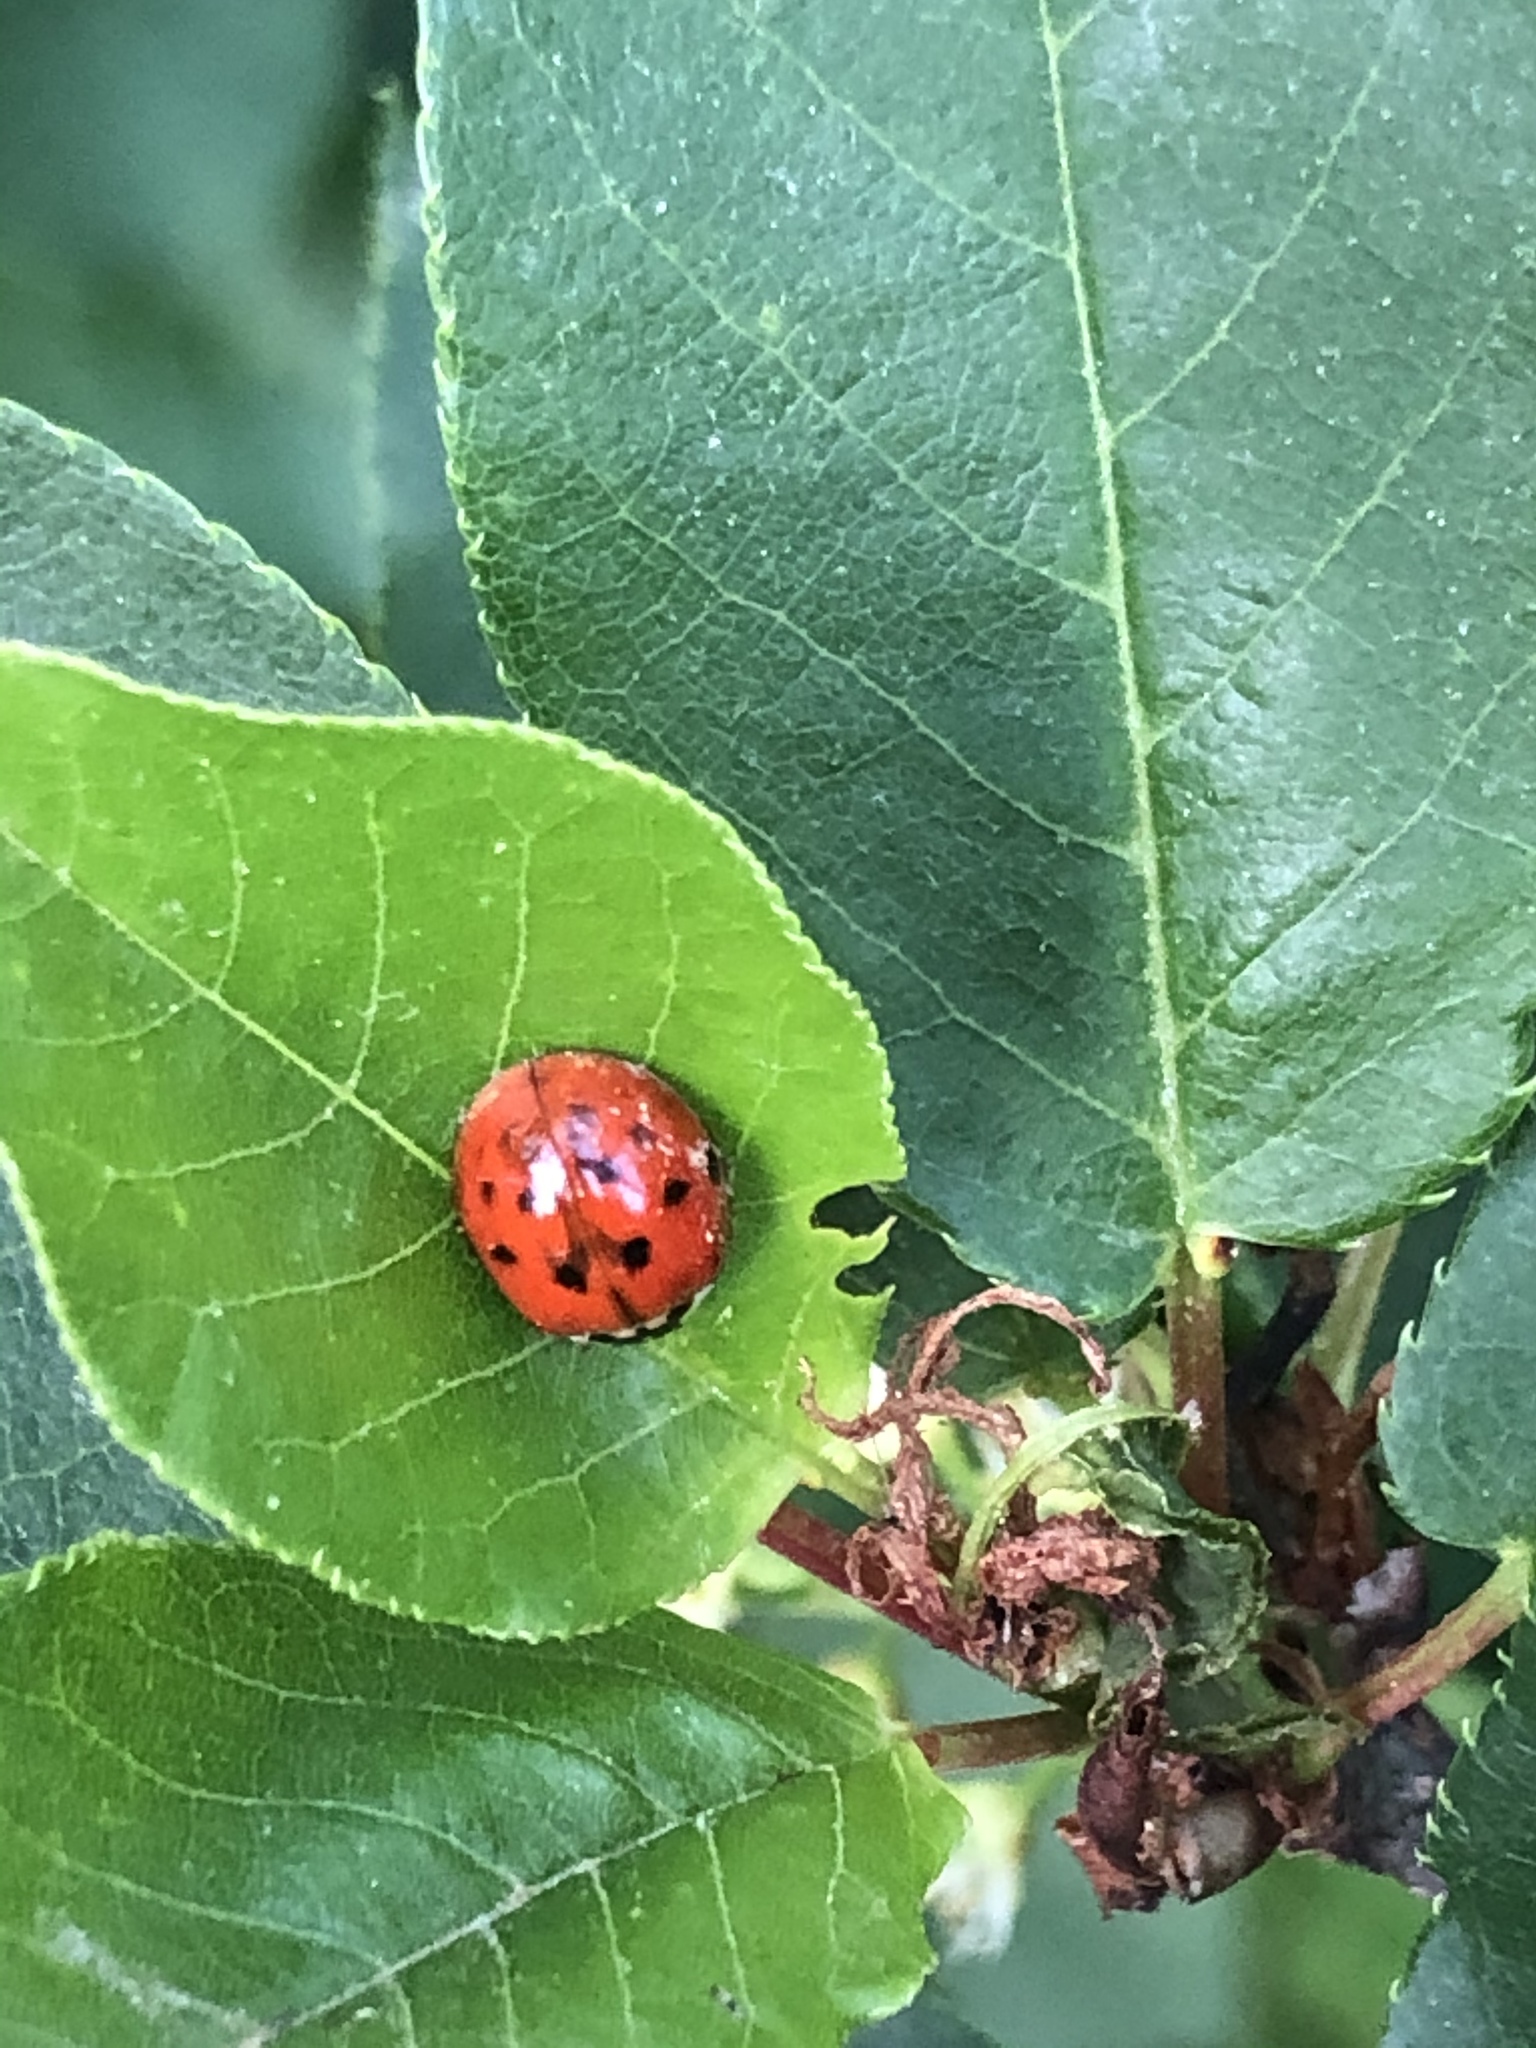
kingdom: Animalia
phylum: Arthropoda
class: Insecta
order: Coleoptera
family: Coccinellidae
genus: Harmonia
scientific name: Harmonia axyridis
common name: Harlequin ladybird
